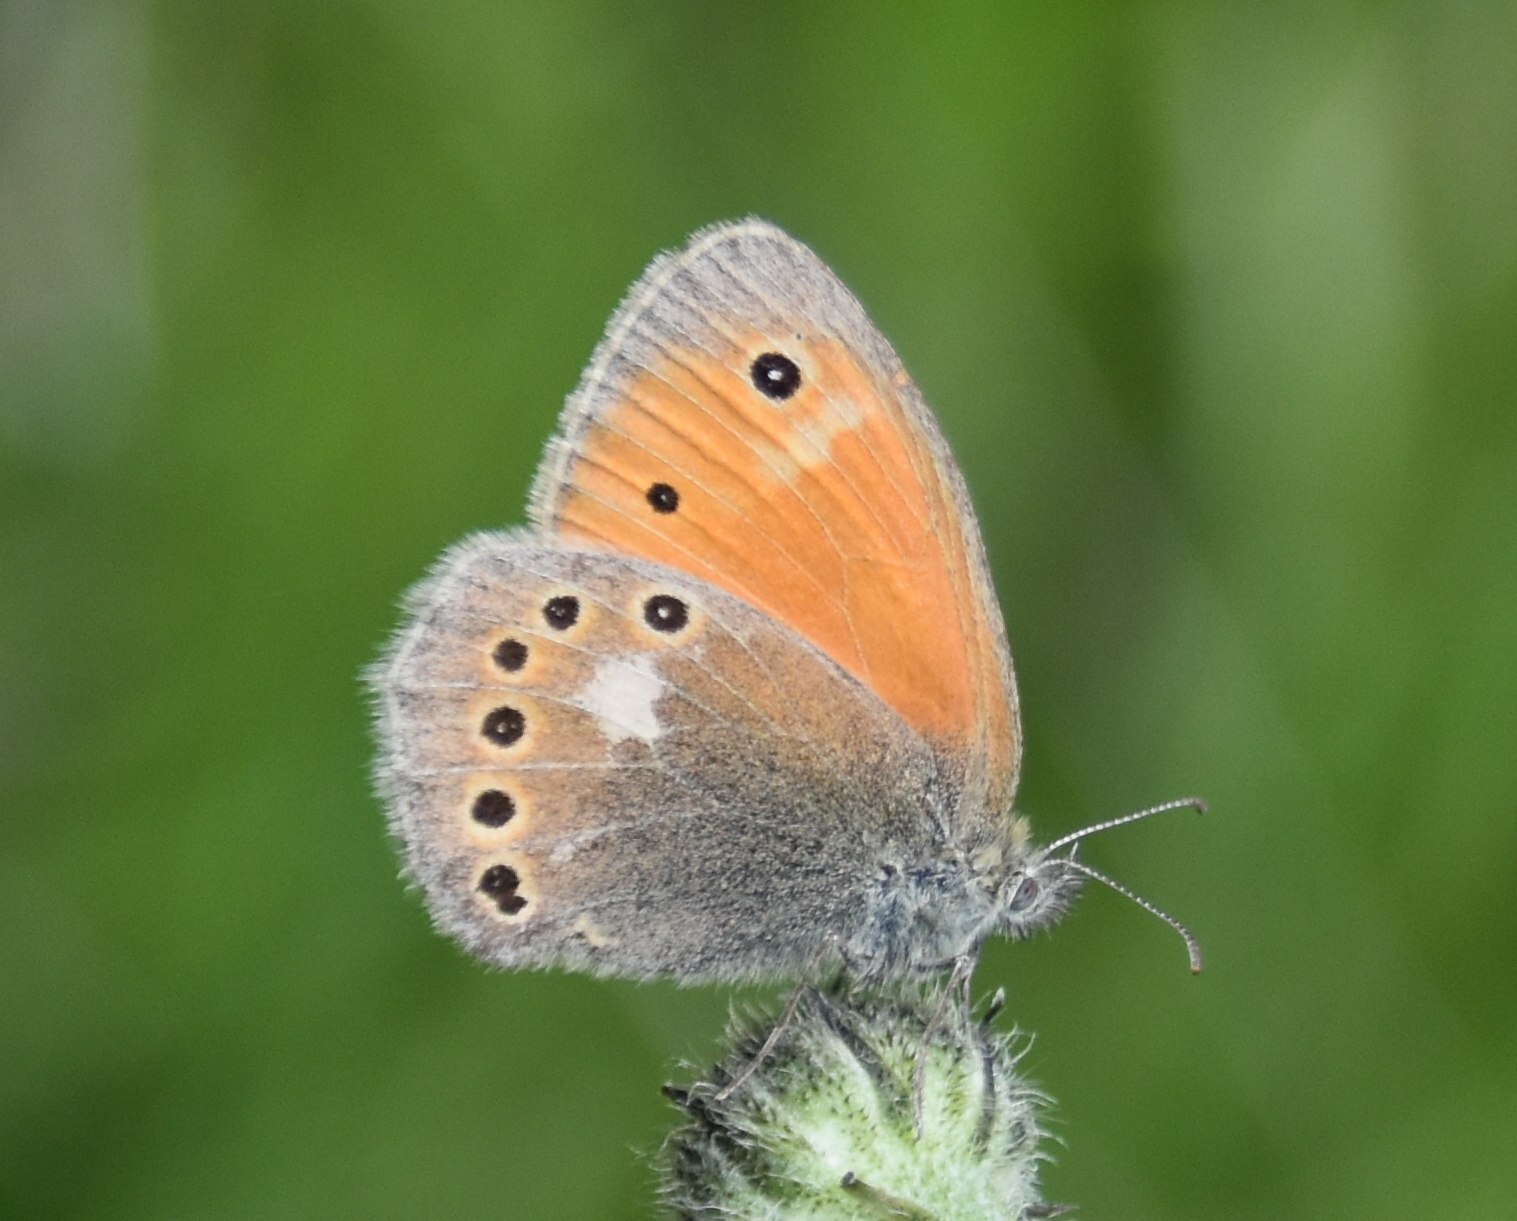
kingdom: Animalia
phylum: Arthropoda
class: Insecta
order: Lepidoptera
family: Nymphalidae
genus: Coenonympha
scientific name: Coenonympha tullia
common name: Large heath
